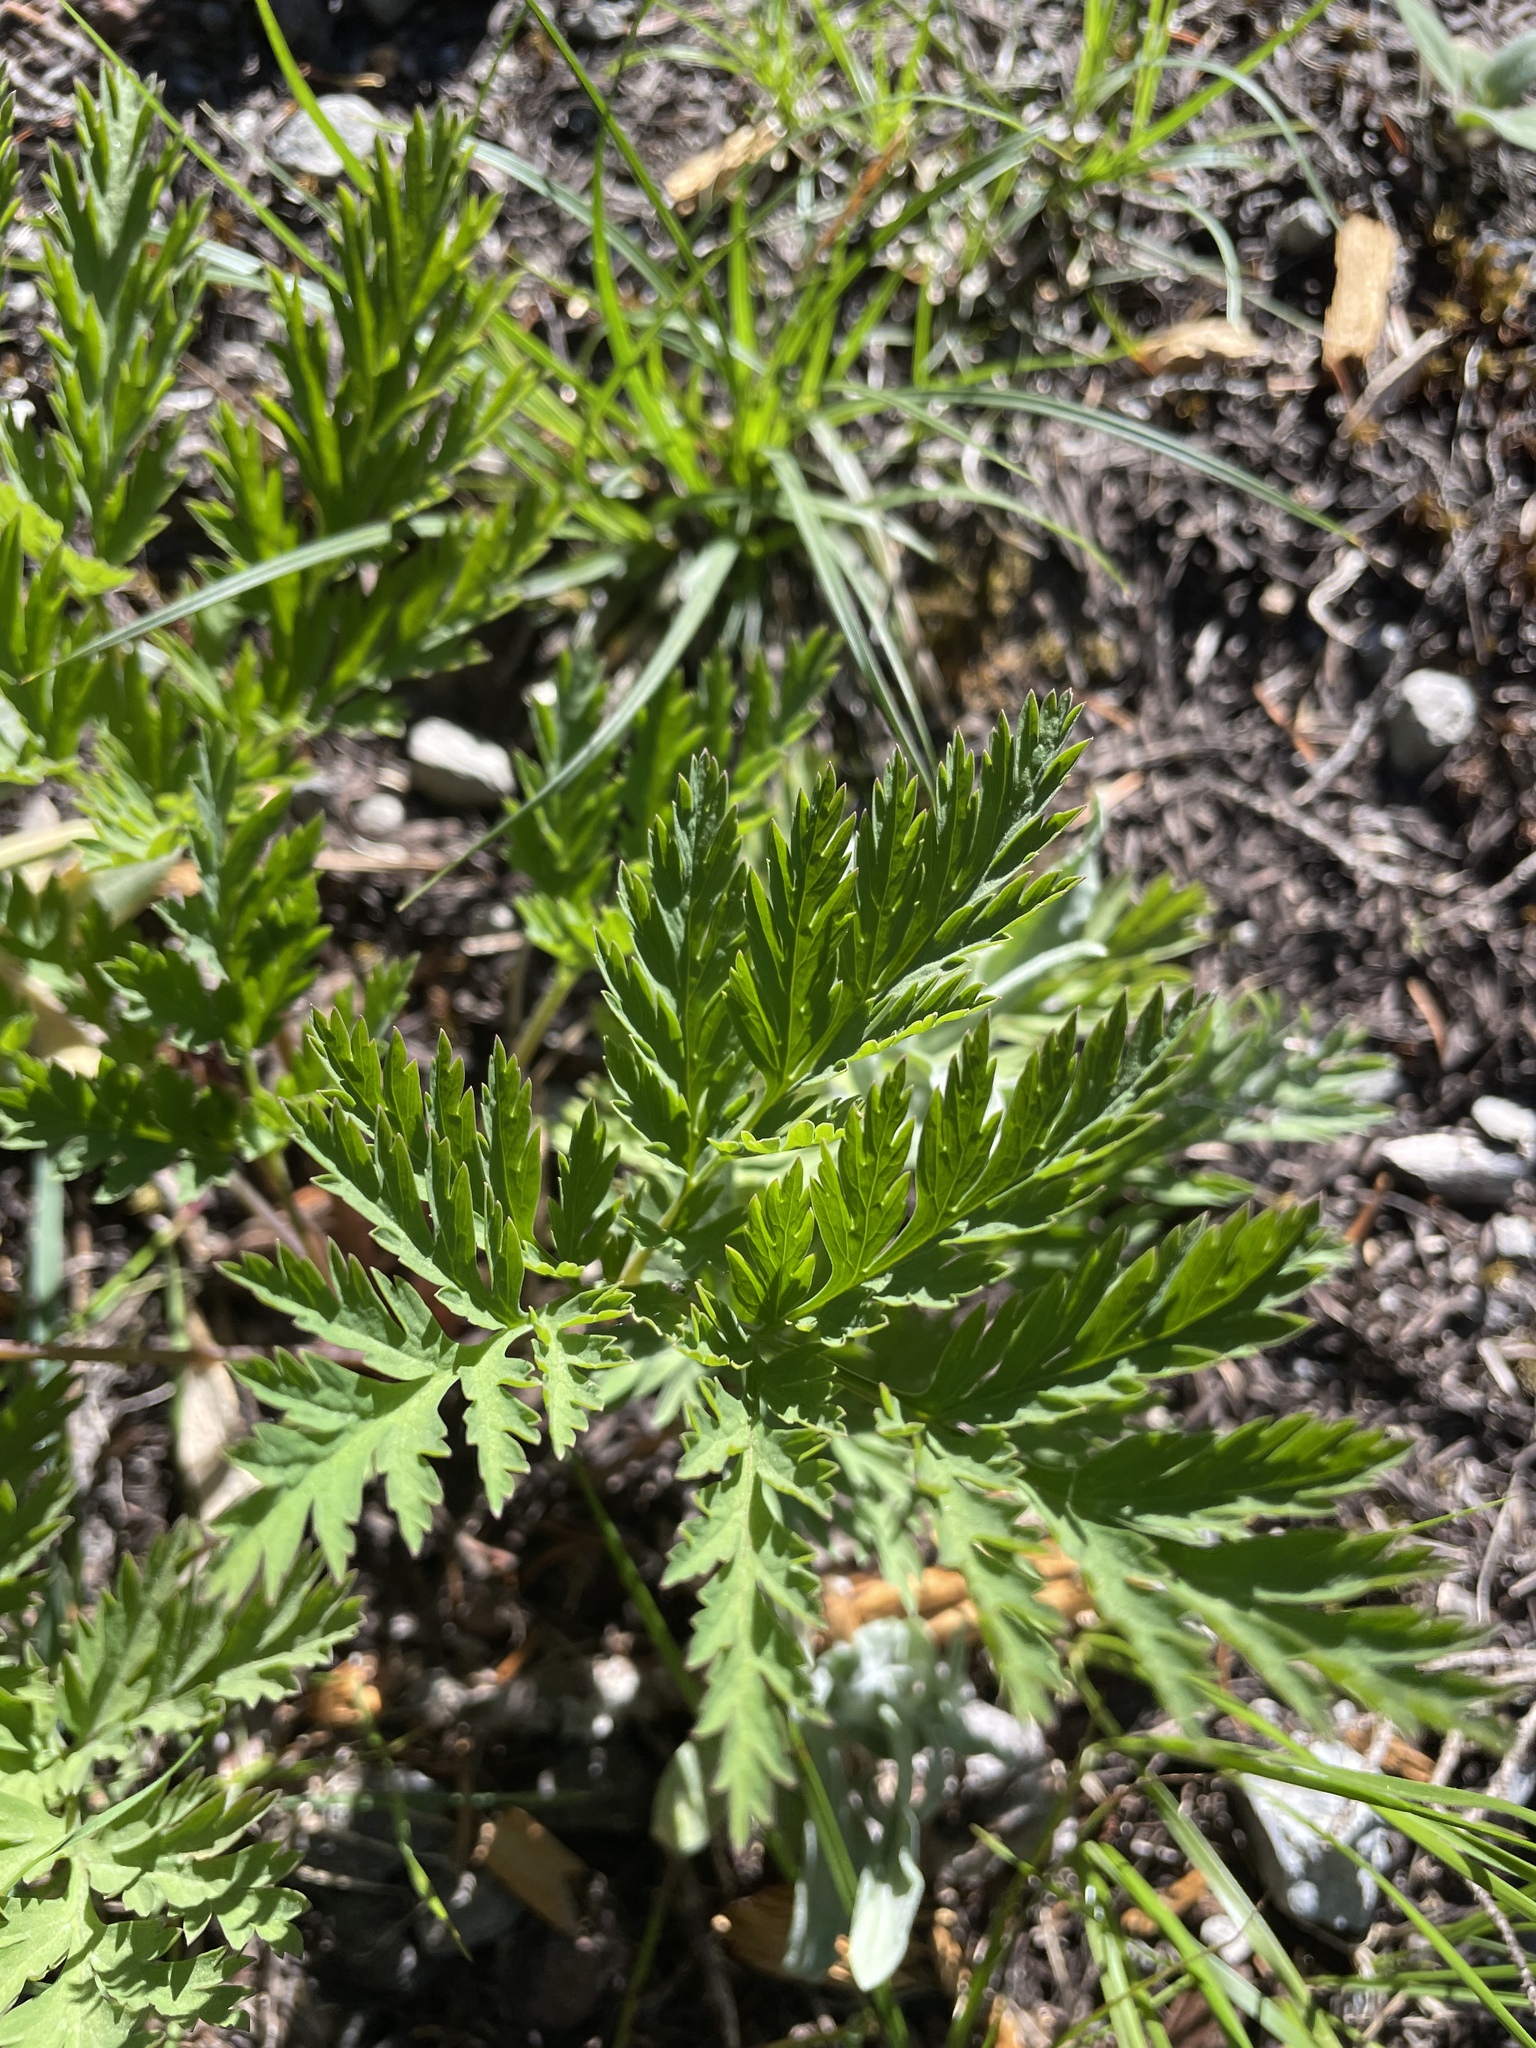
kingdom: Plantae
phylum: Tracheophyta
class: Magnoliopsida
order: Ranunculales
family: Papaveraceae
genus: Dicentra
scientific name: Dicentra formosa
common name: Bleeding-heart
